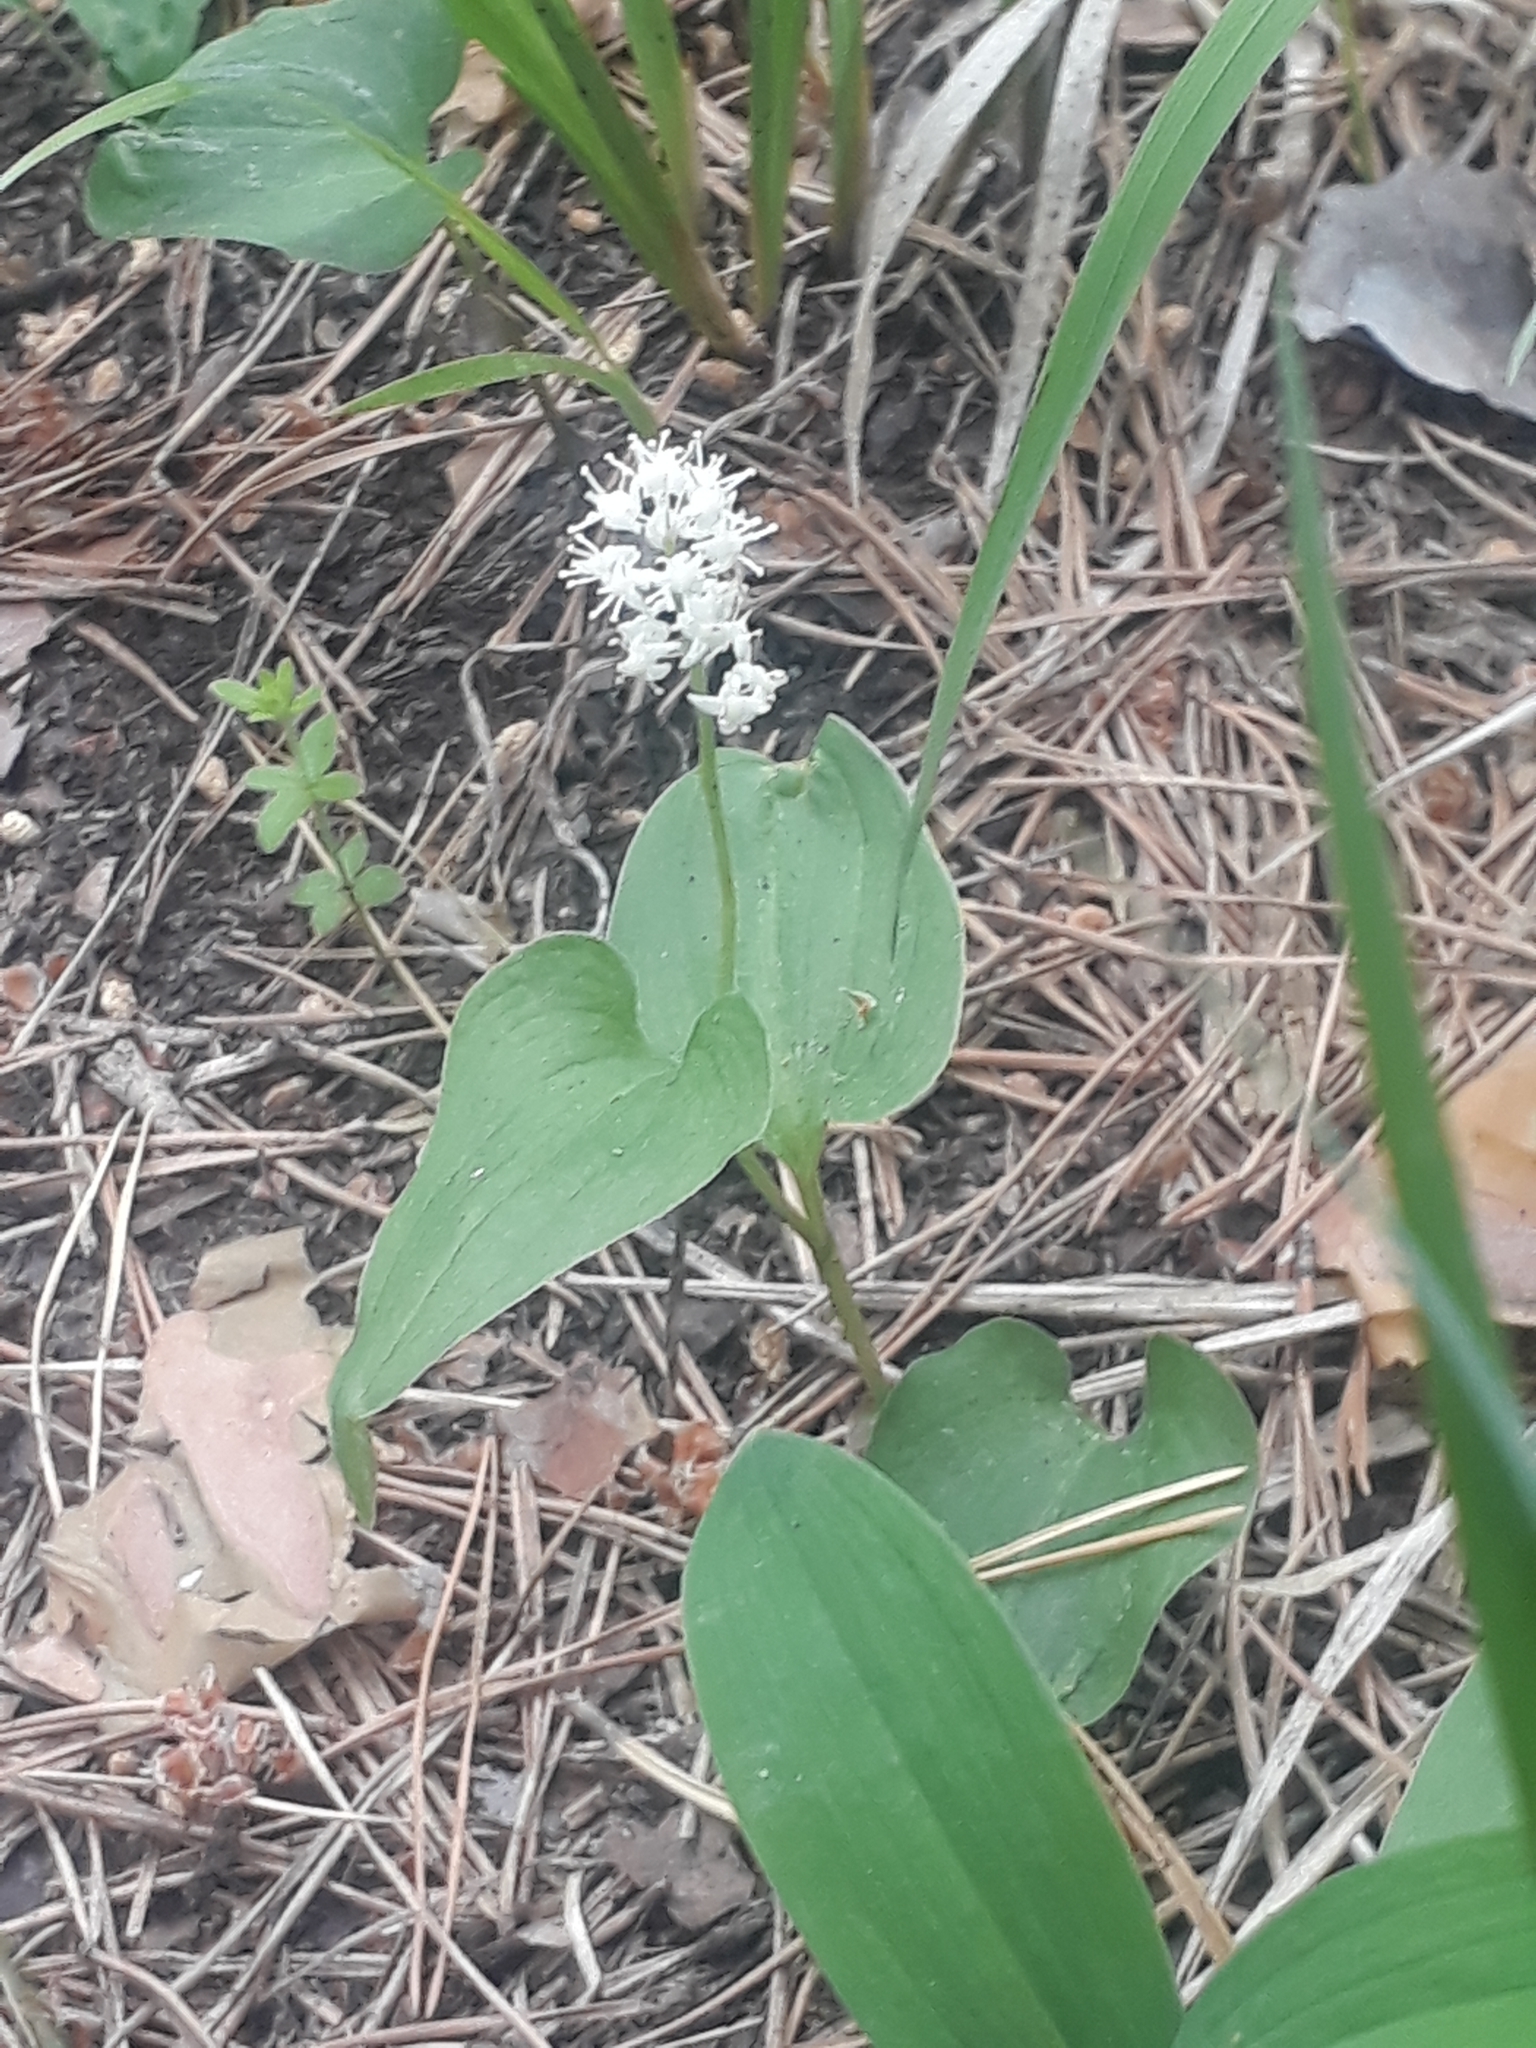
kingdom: Plantae
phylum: Tracheophyta
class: Liliopsida
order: Asparagales
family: Asparagaceae
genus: Maianthemum
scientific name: Maianthemum bifolium
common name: May lily
